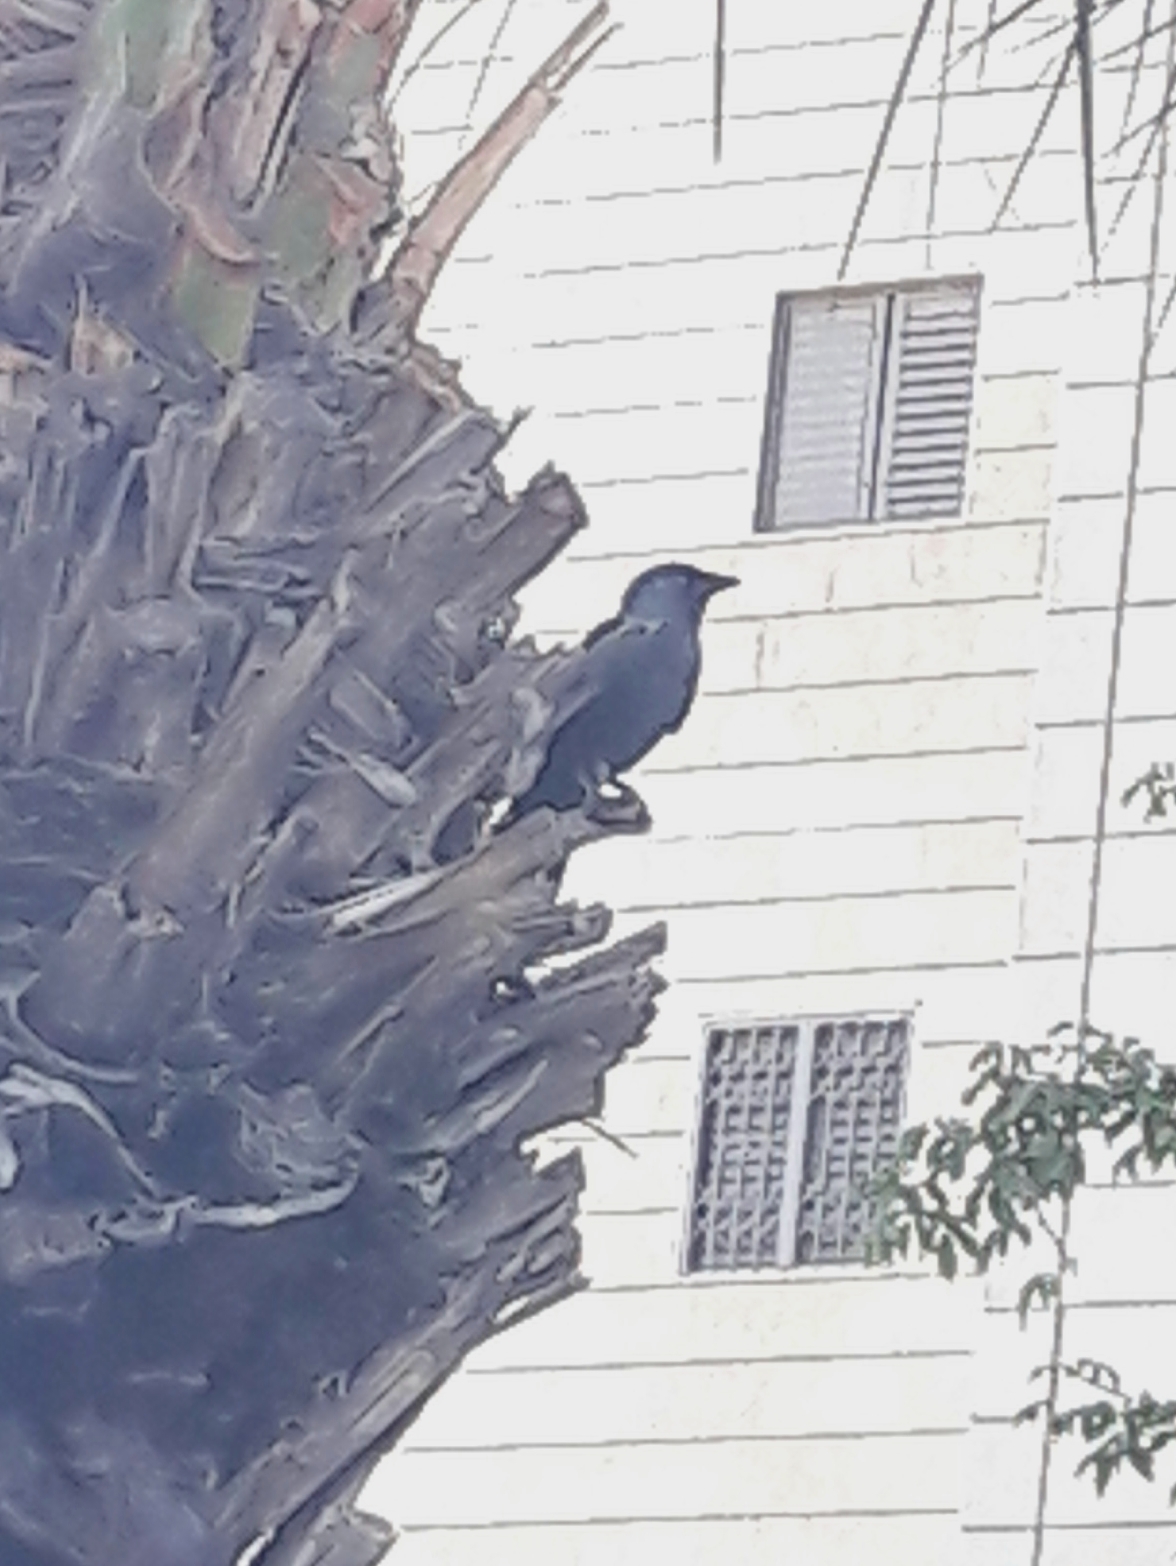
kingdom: Animalia
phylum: Chordata
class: Aves
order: Passeriformes
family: Corvidae
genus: Coloeus
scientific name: Coloeus monedula
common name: Western jackdaw
